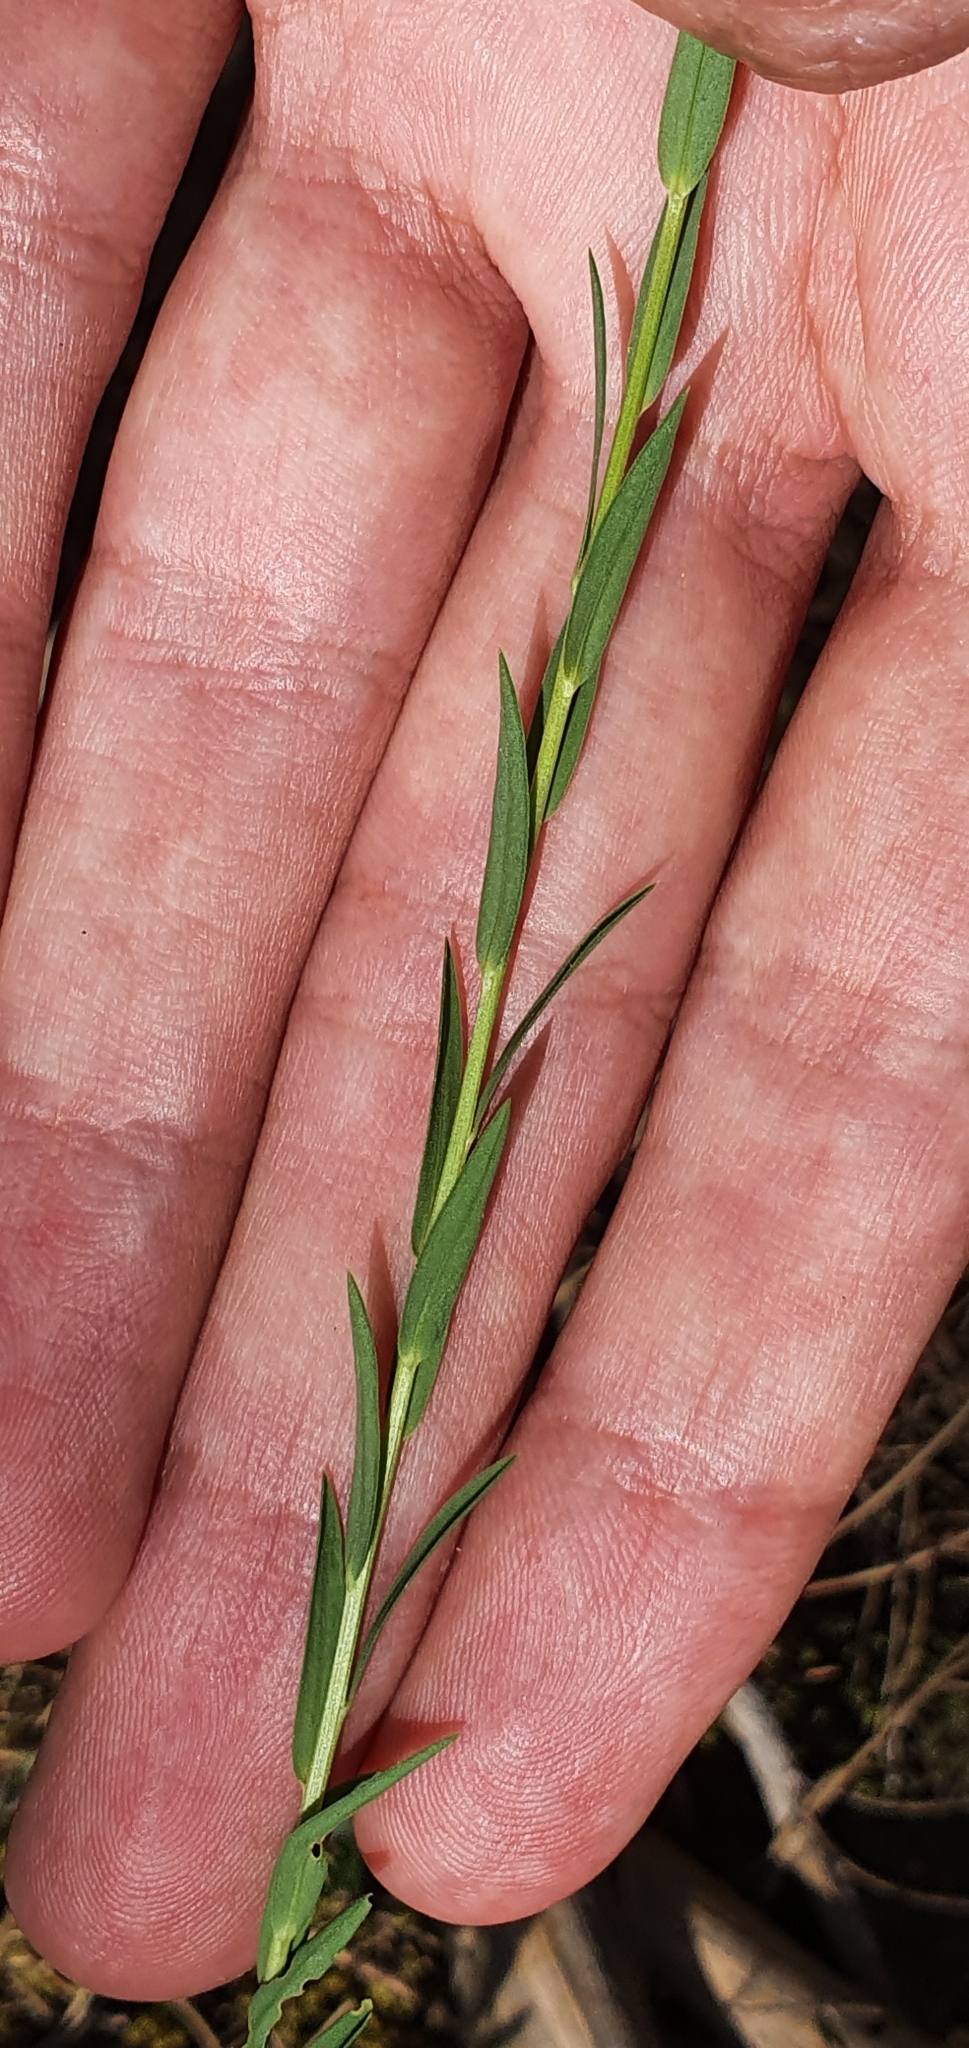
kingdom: Plantae
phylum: Tracheophyta
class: Magnoliopsida
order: Malpighiales
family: Linaceae
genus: Linum
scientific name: Linum corymbiferum
